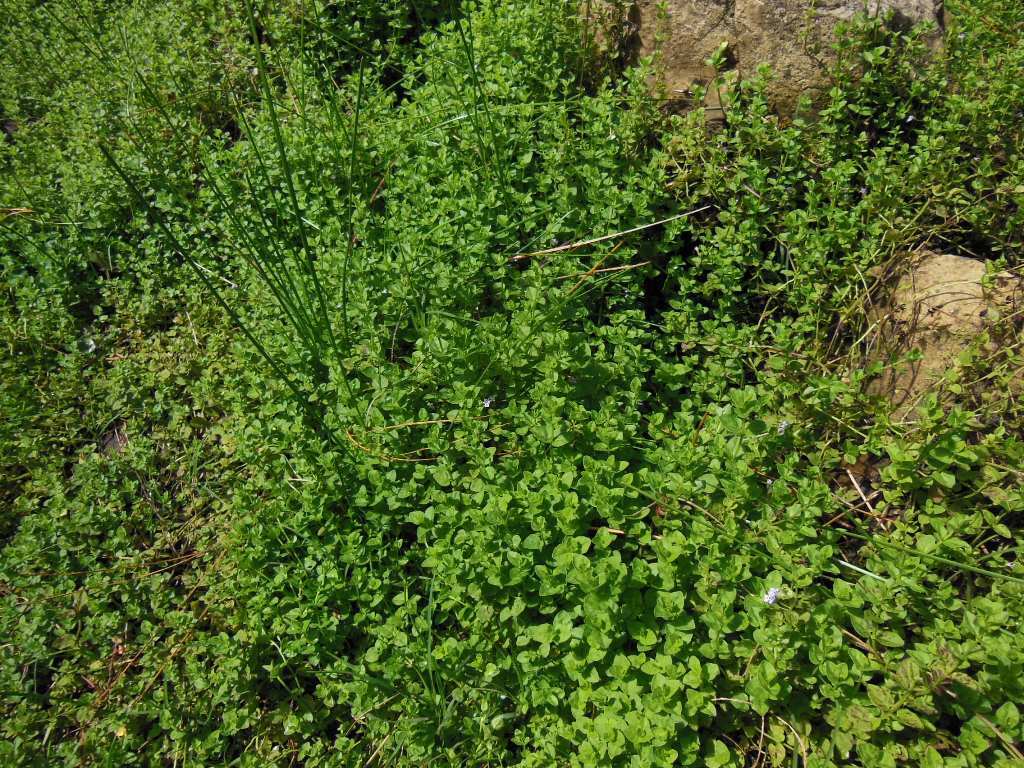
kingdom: Plantae
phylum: Tracheophyta
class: Magnoliopsida
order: Lamiales
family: Lamiaceae
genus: Clinopodium
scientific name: Clinopodium brownei
